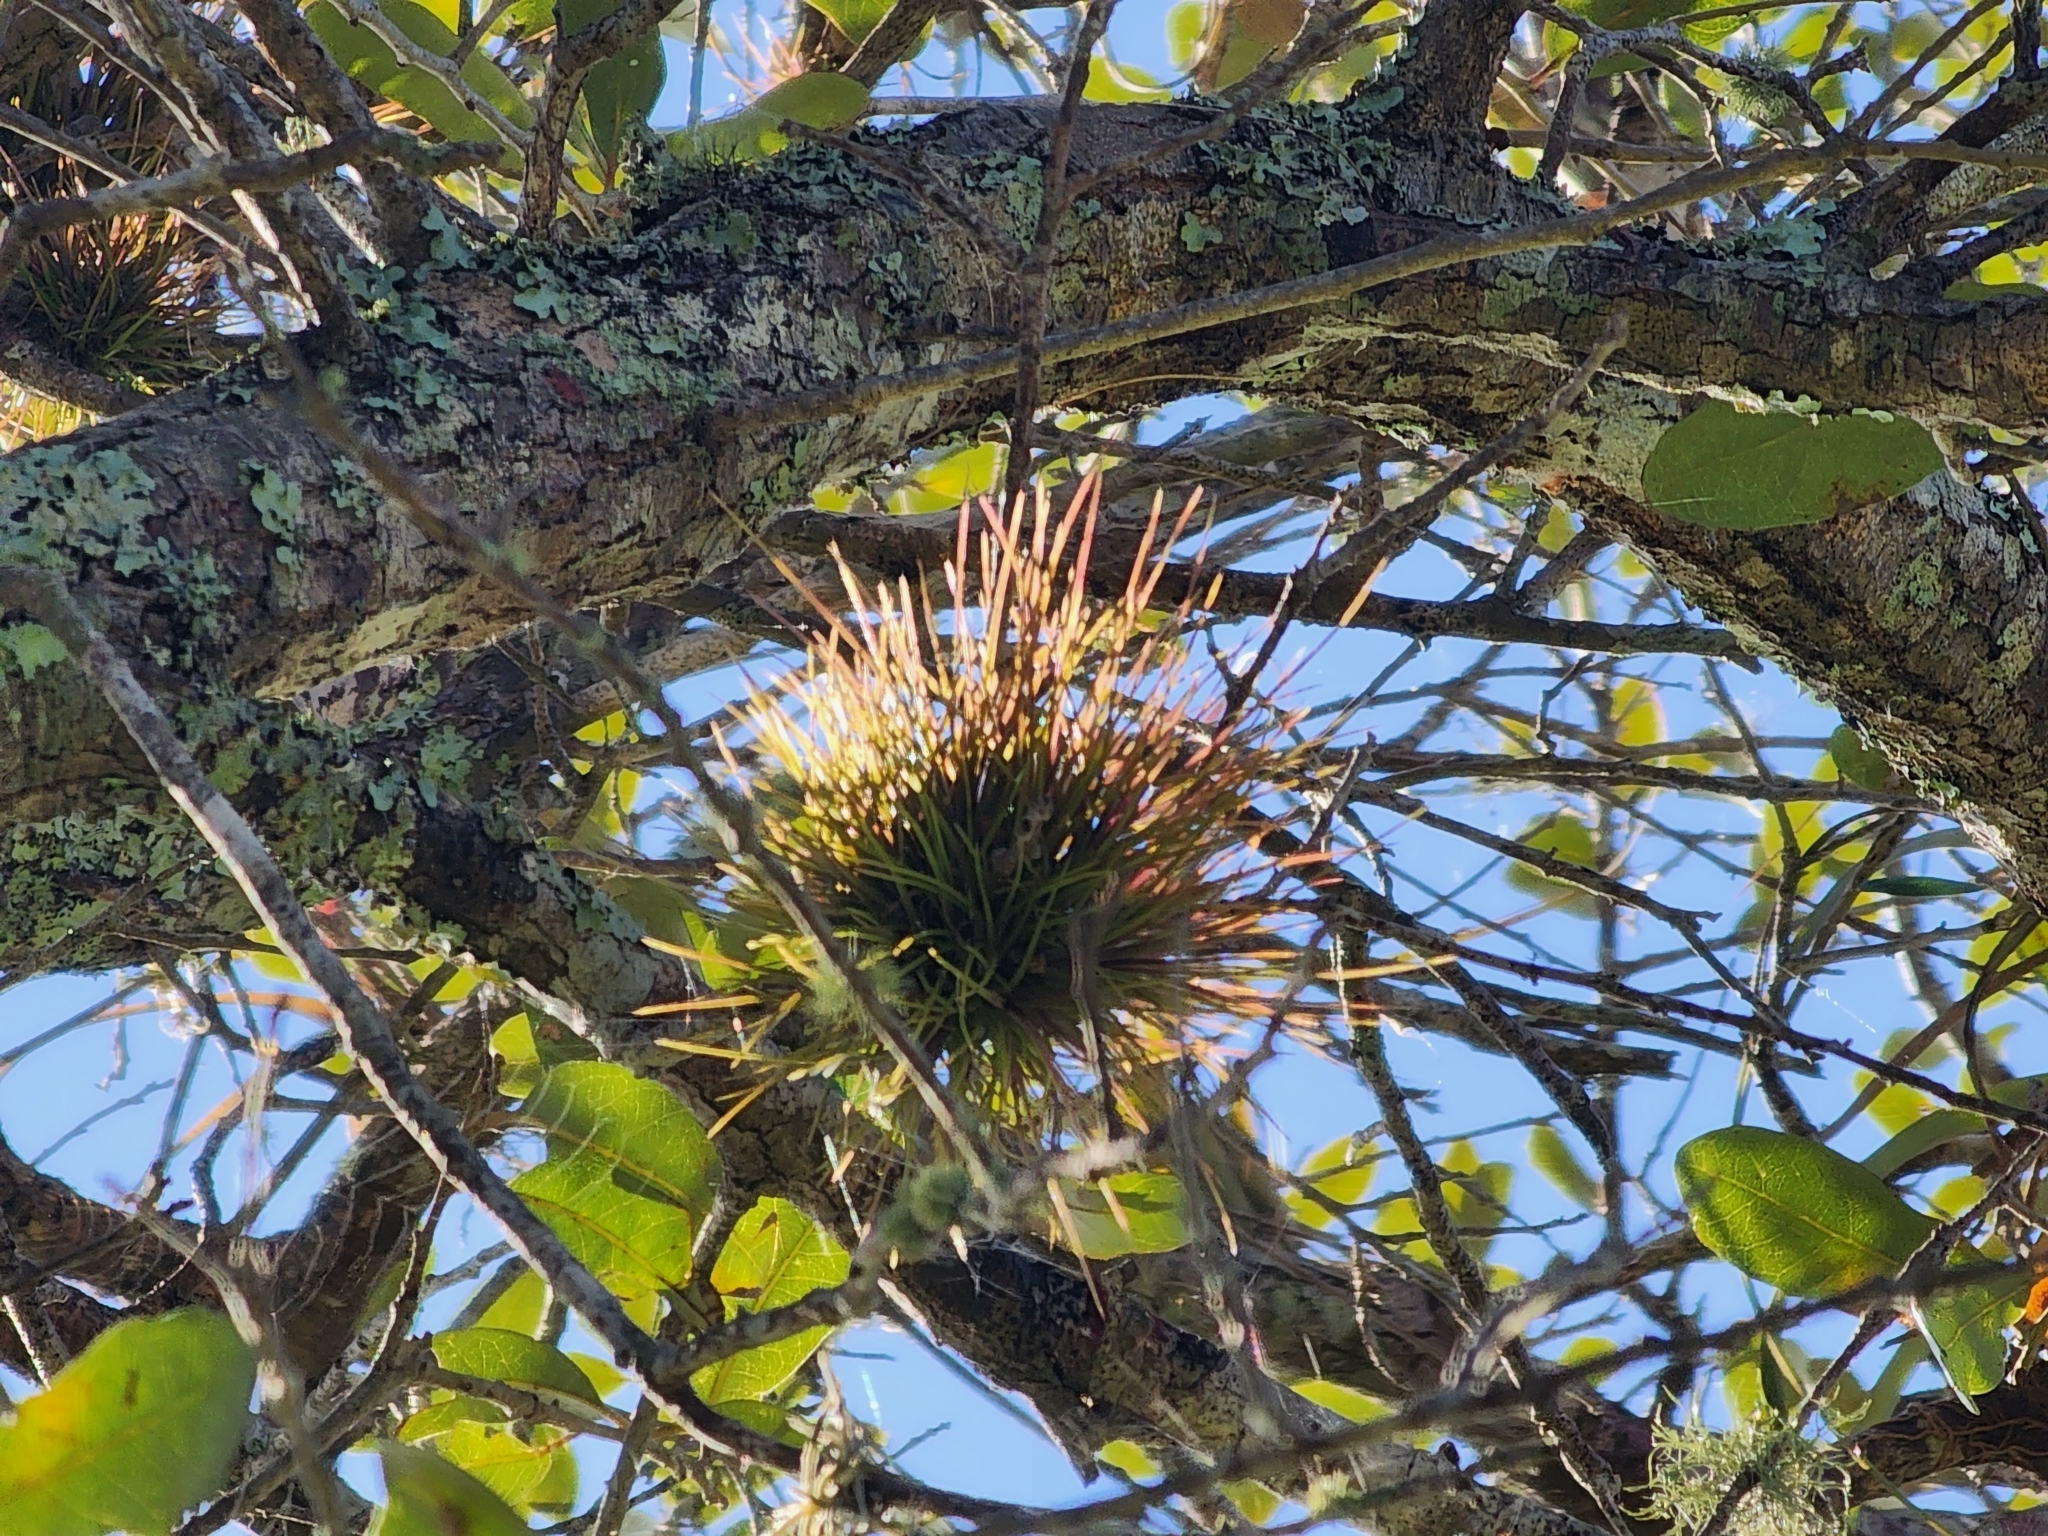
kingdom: Plantae
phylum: Tracheophyta
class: Liliopsida
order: Poales
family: Bromeliaceae
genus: Tillandsia
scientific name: Tillandsia setacea
